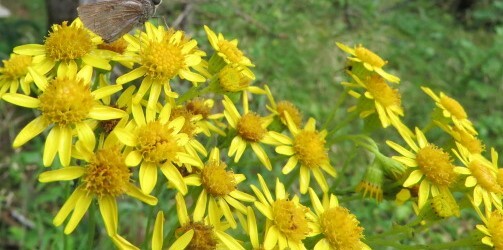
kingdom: Plantae
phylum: Tracheophyta
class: Magnoliopsida
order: Asterales
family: Asteraceae
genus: Jacobaea
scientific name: Jacobaea vulgaris
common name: Stinking willie
